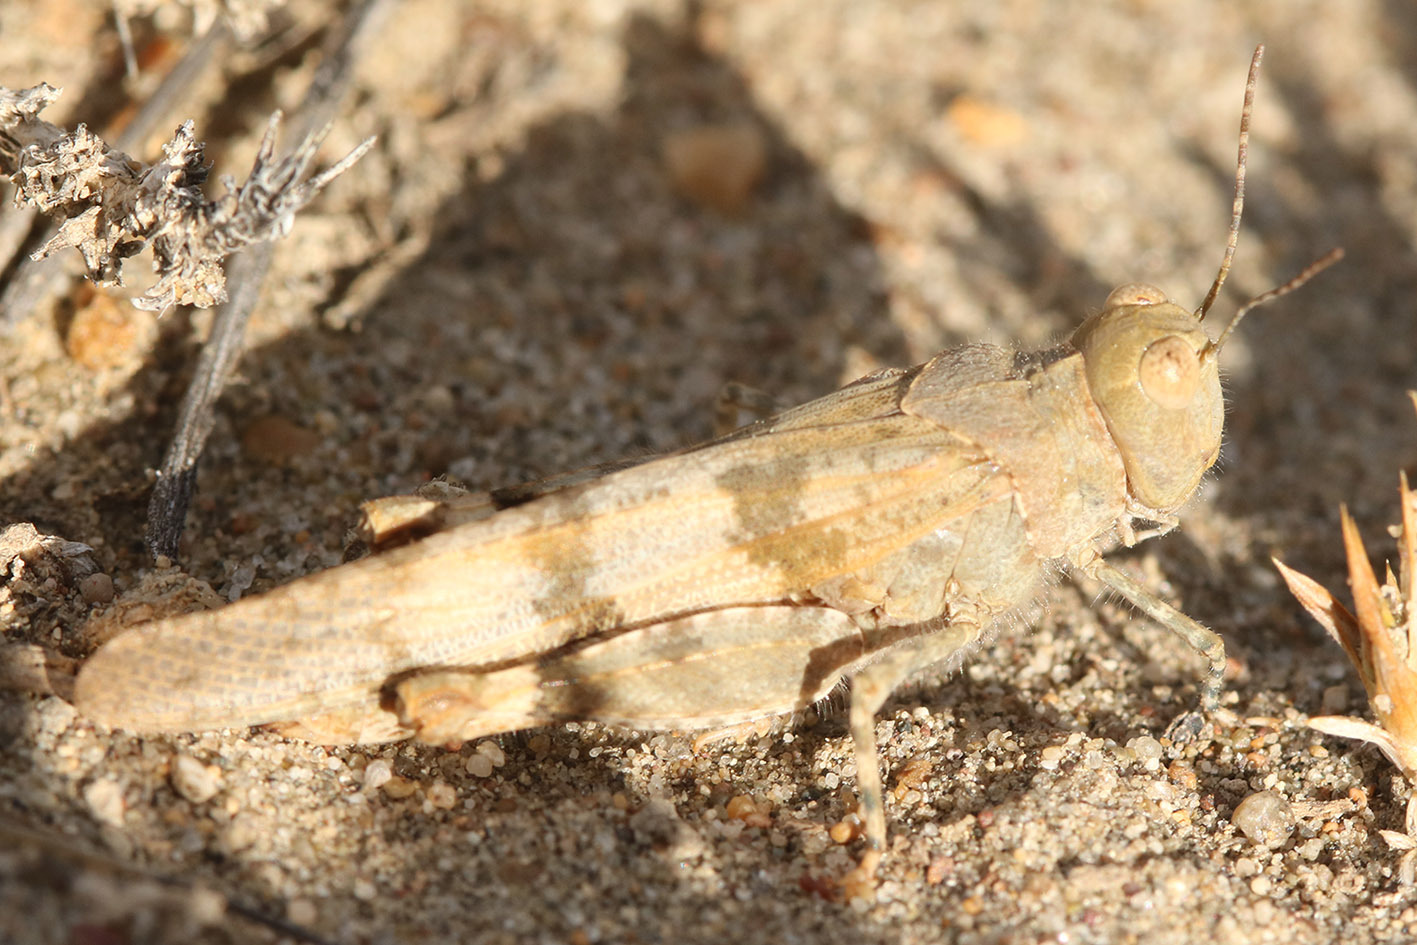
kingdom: Animalia
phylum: Arthropoda
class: Insecta
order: Orthoptera
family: Acrididae
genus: Trimerotropis
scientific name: Trimerotropis pallidipennis
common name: Pallid-winged grasshopper
